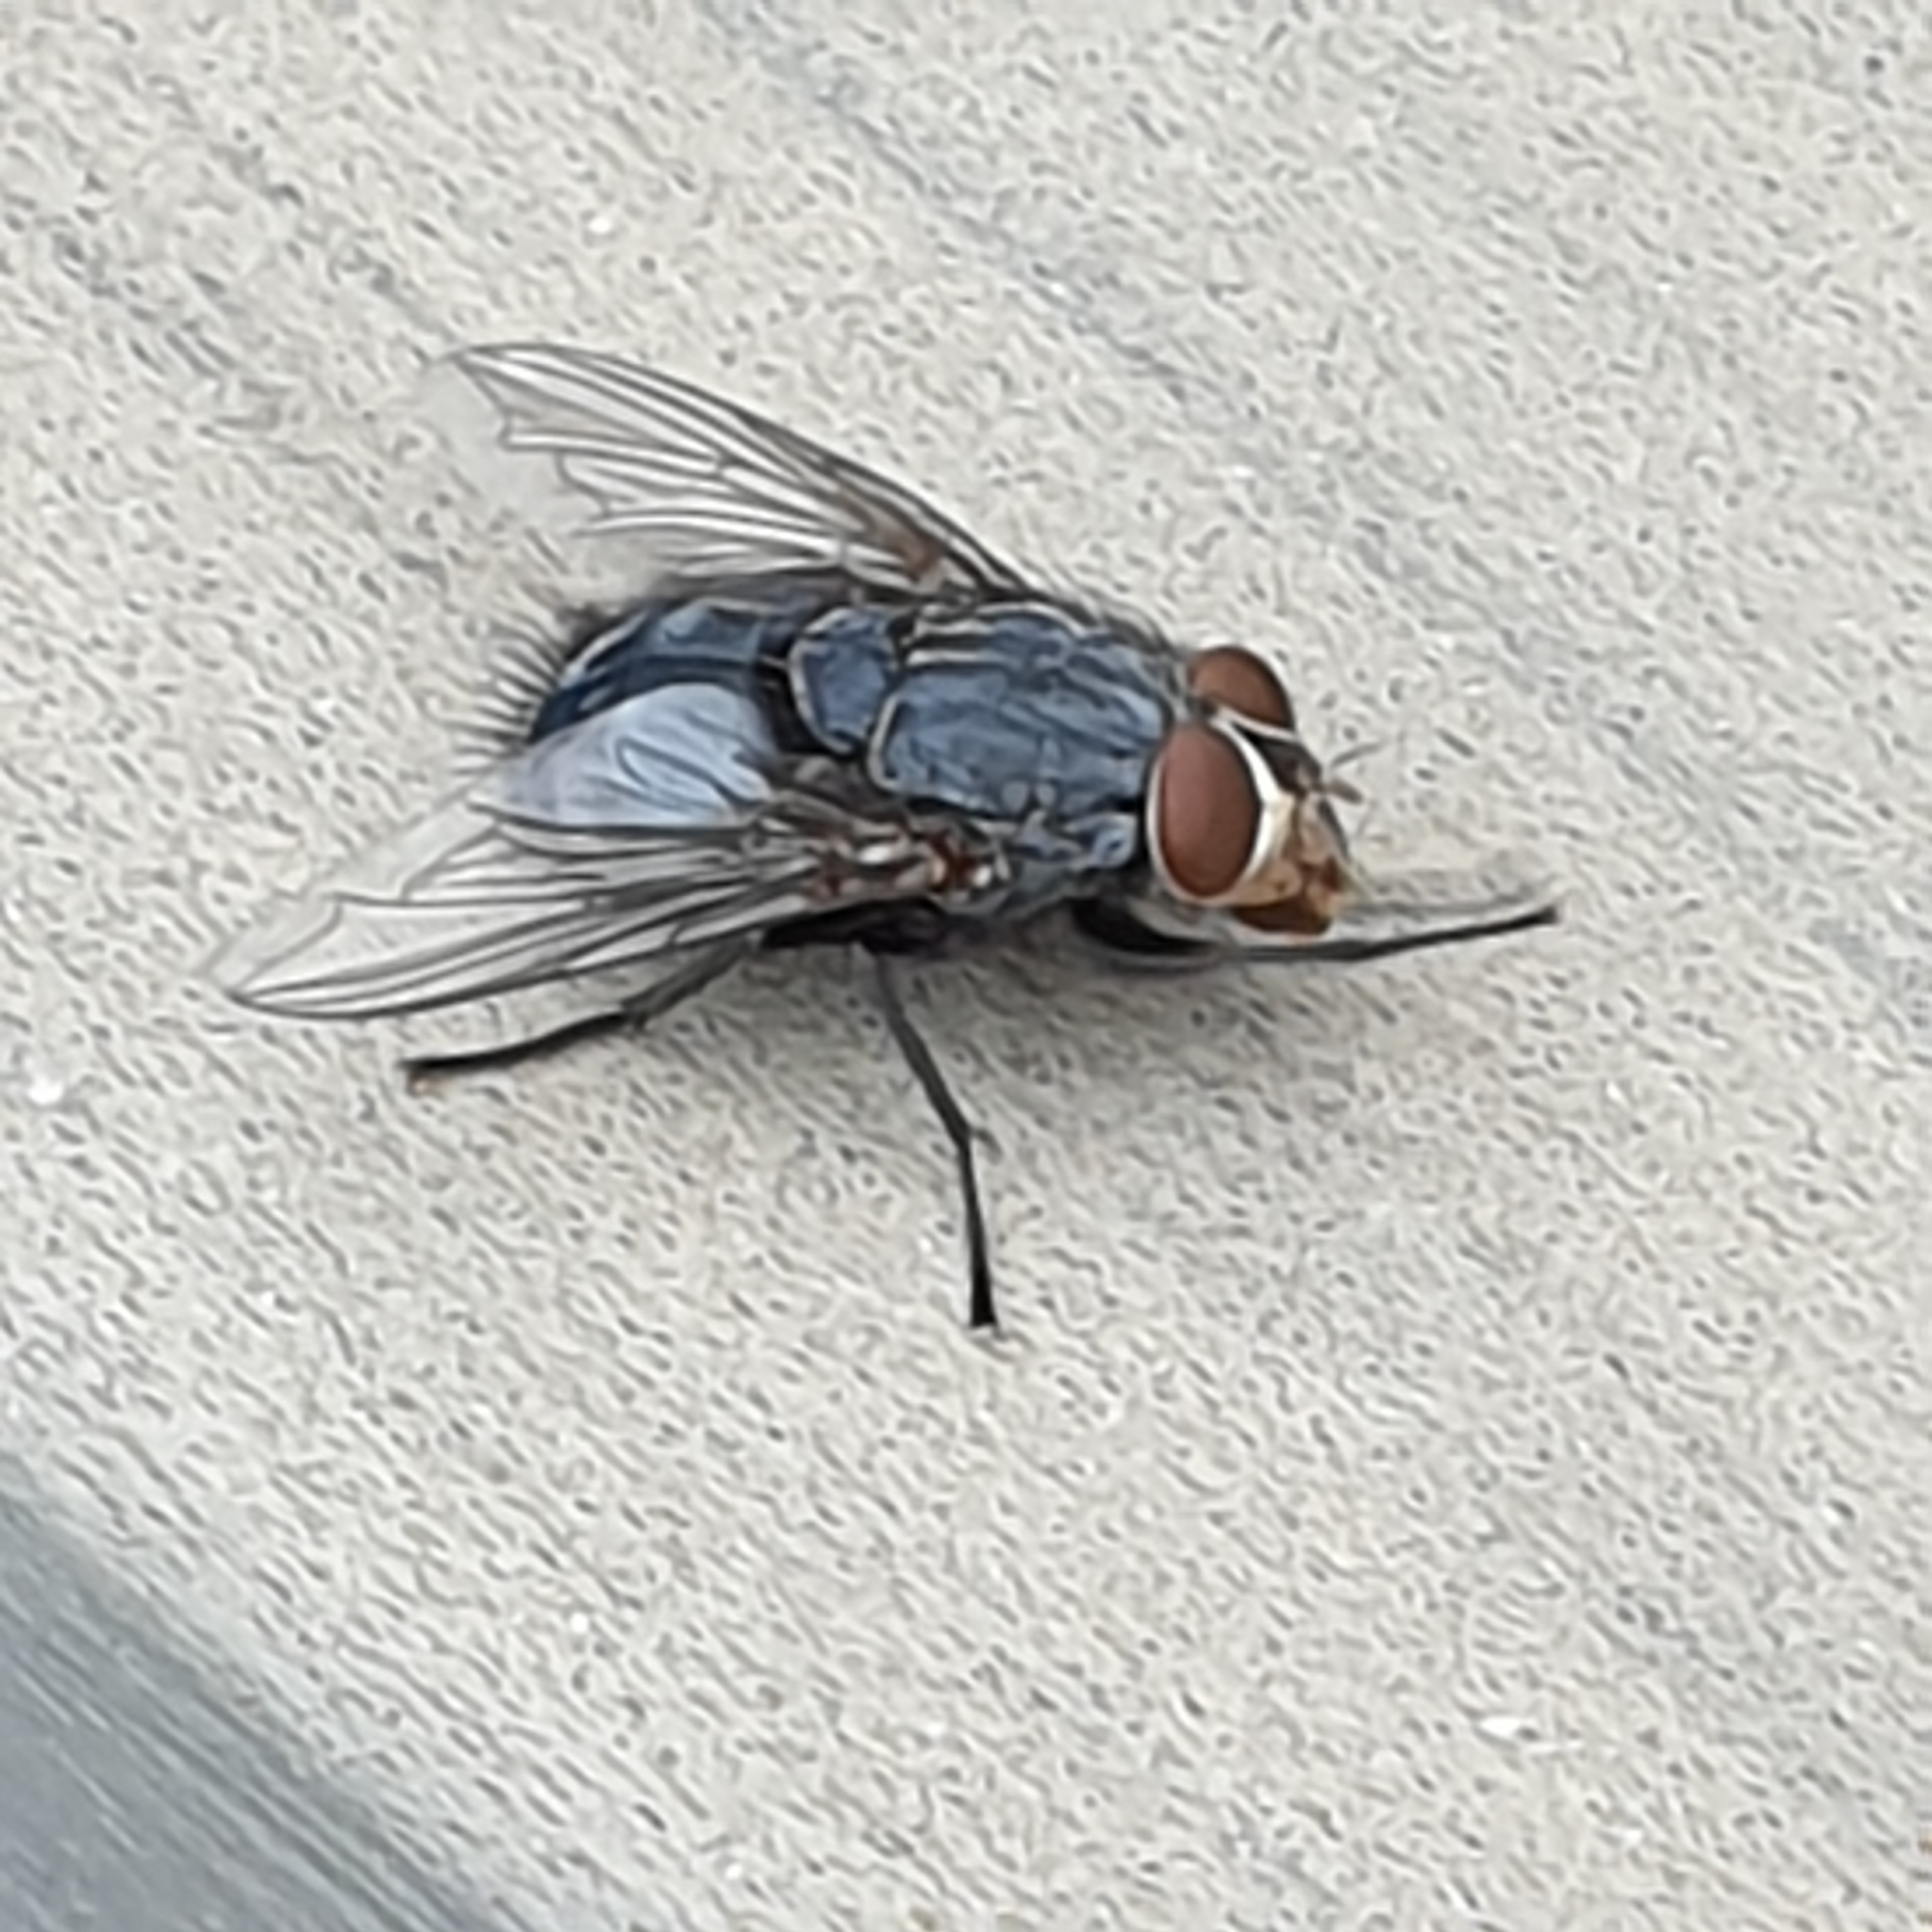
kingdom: Animalia
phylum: Arthropoda
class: Insecta
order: Diptera
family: Calliphoridae
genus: Calliphora
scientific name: Calliphora vicina
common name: Common blow flie
